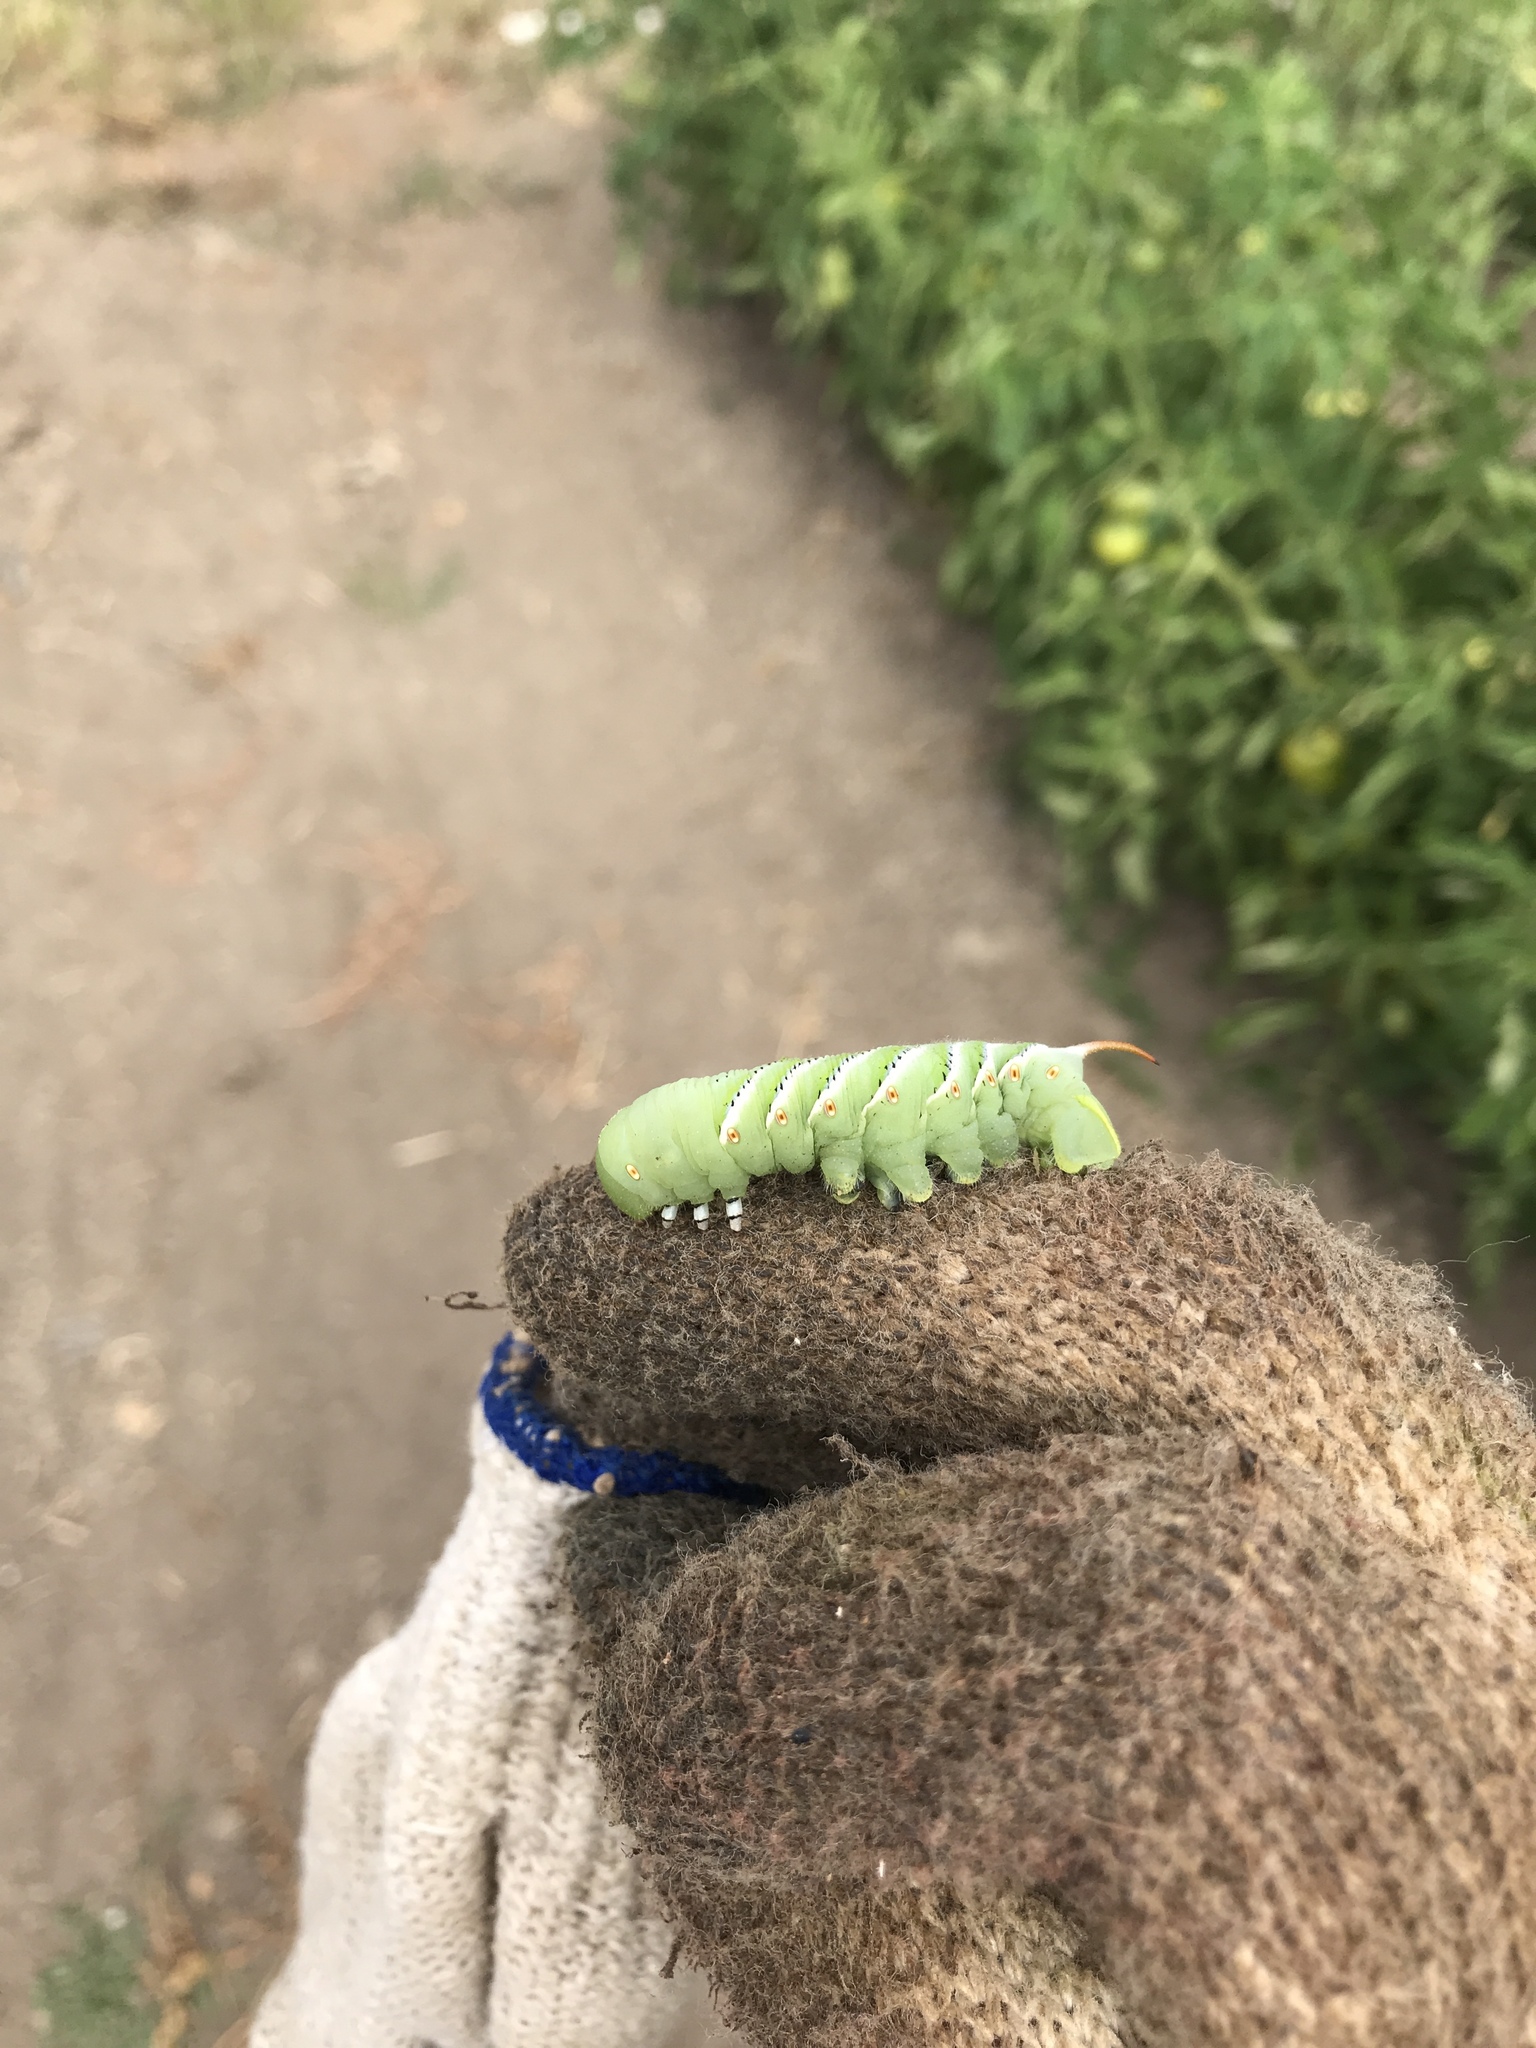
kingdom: Animalia
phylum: Arthropoda
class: Insecta
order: Lepidoptera
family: Sphingidae
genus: Manduca
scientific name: Manduca sexta
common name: Carolina sphinx
